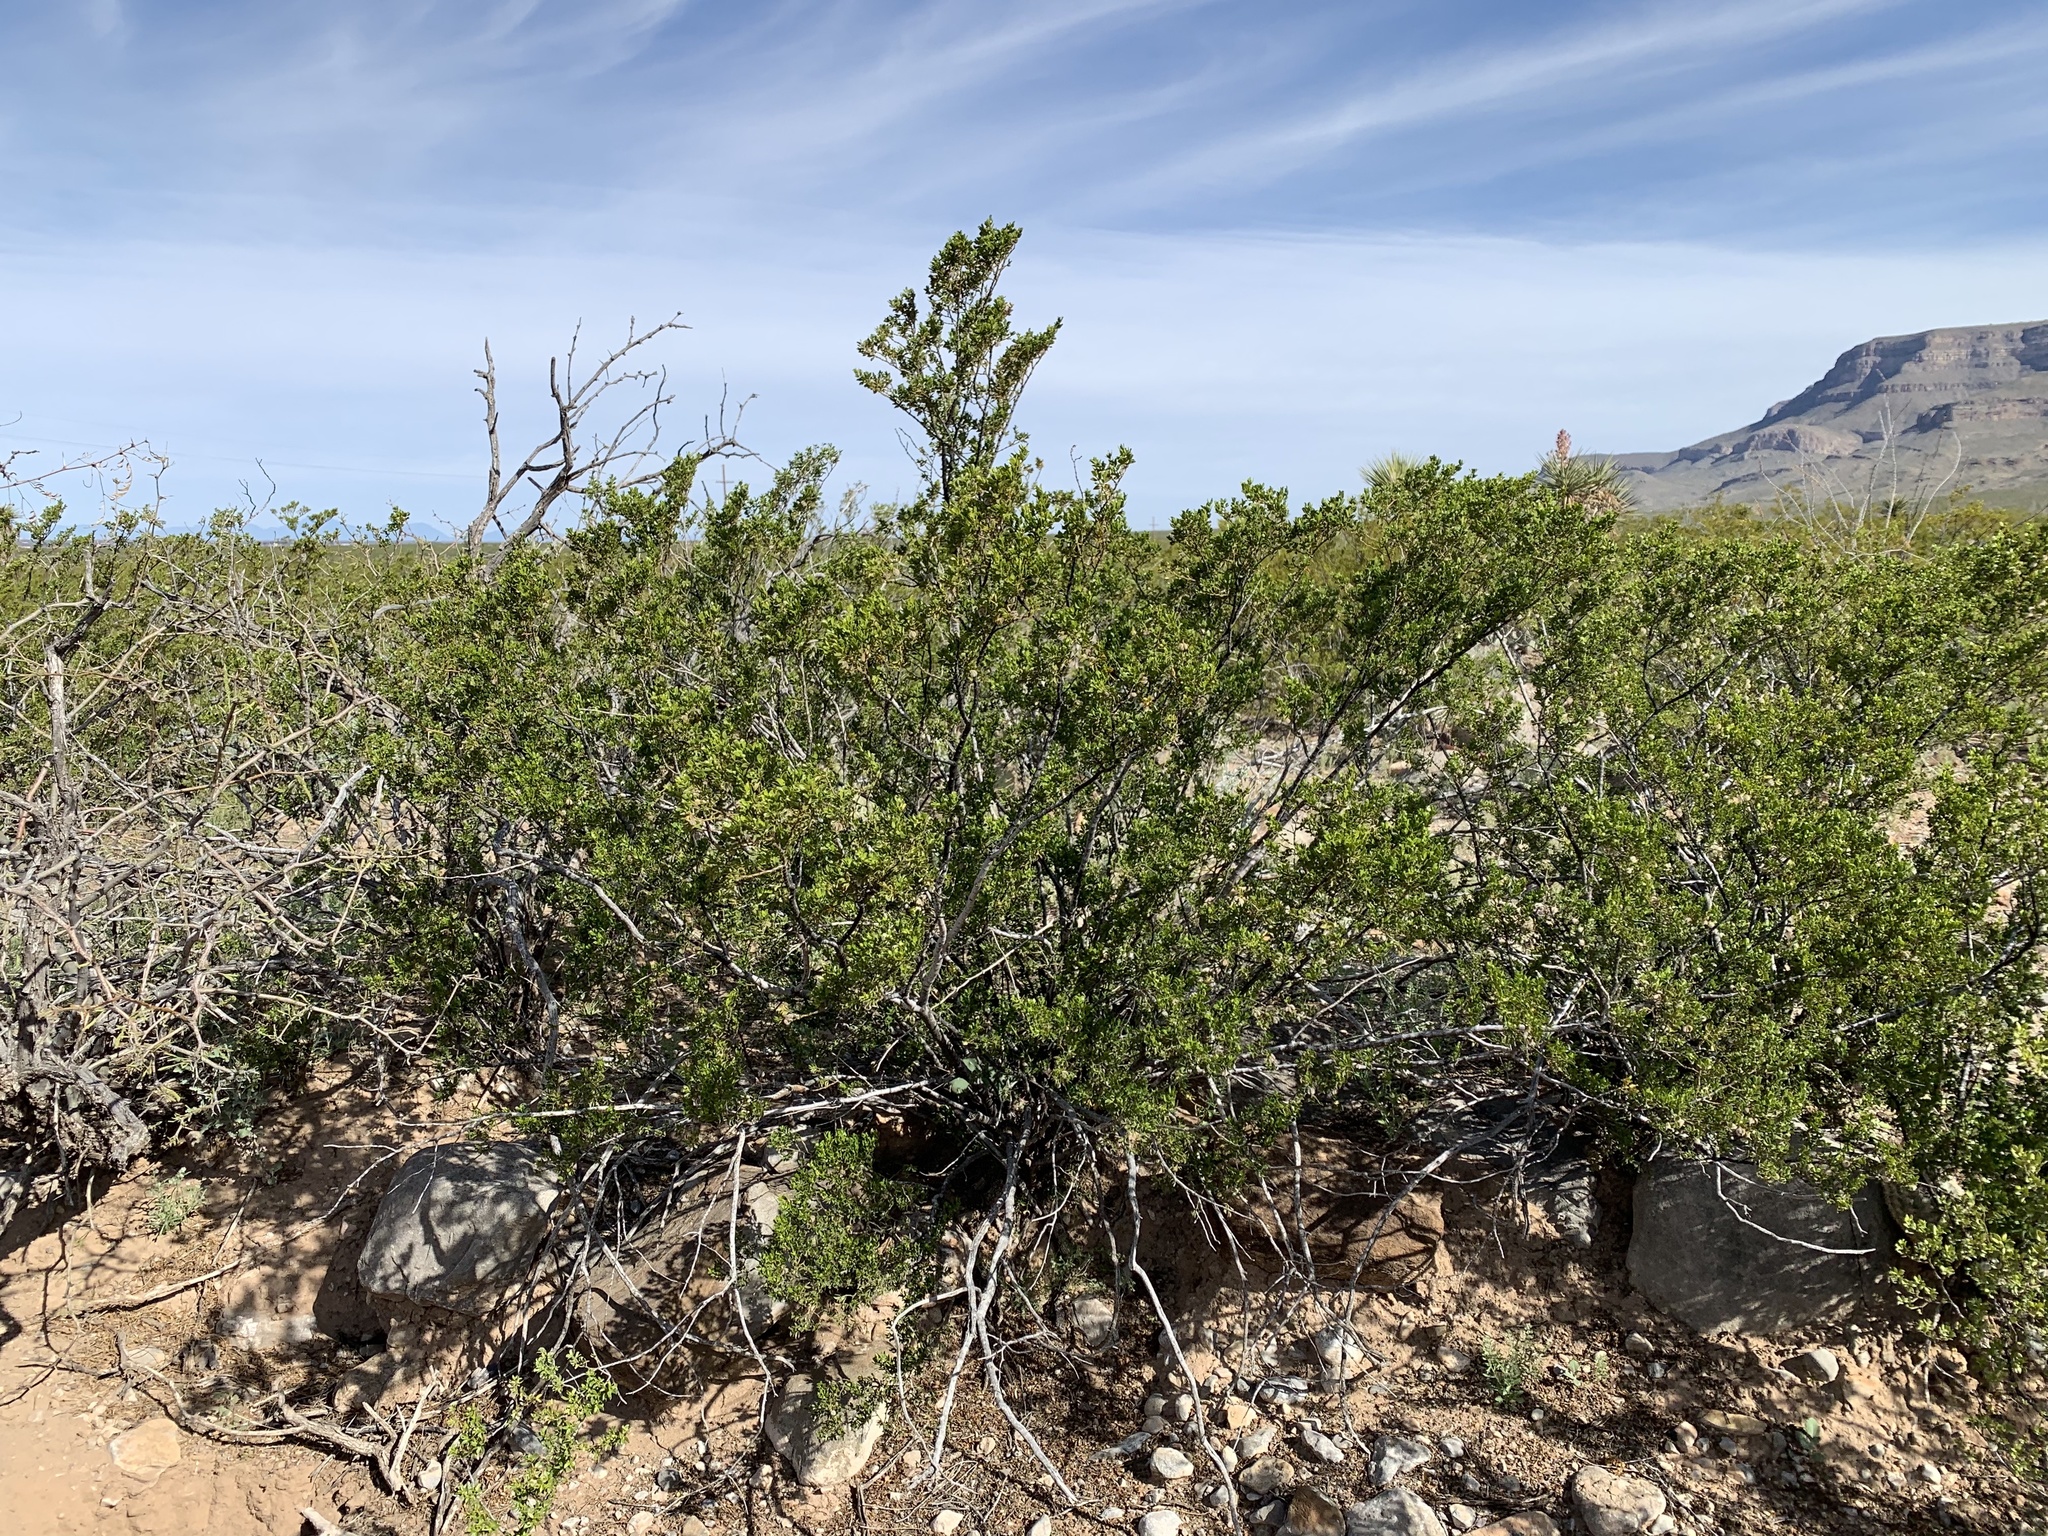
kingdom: Plantae
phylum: Tracheophyta
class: Magnoliopsida
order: Zygophyllales
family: Zygophyllaceae
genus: Larrea
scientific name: Larrea tridentata
